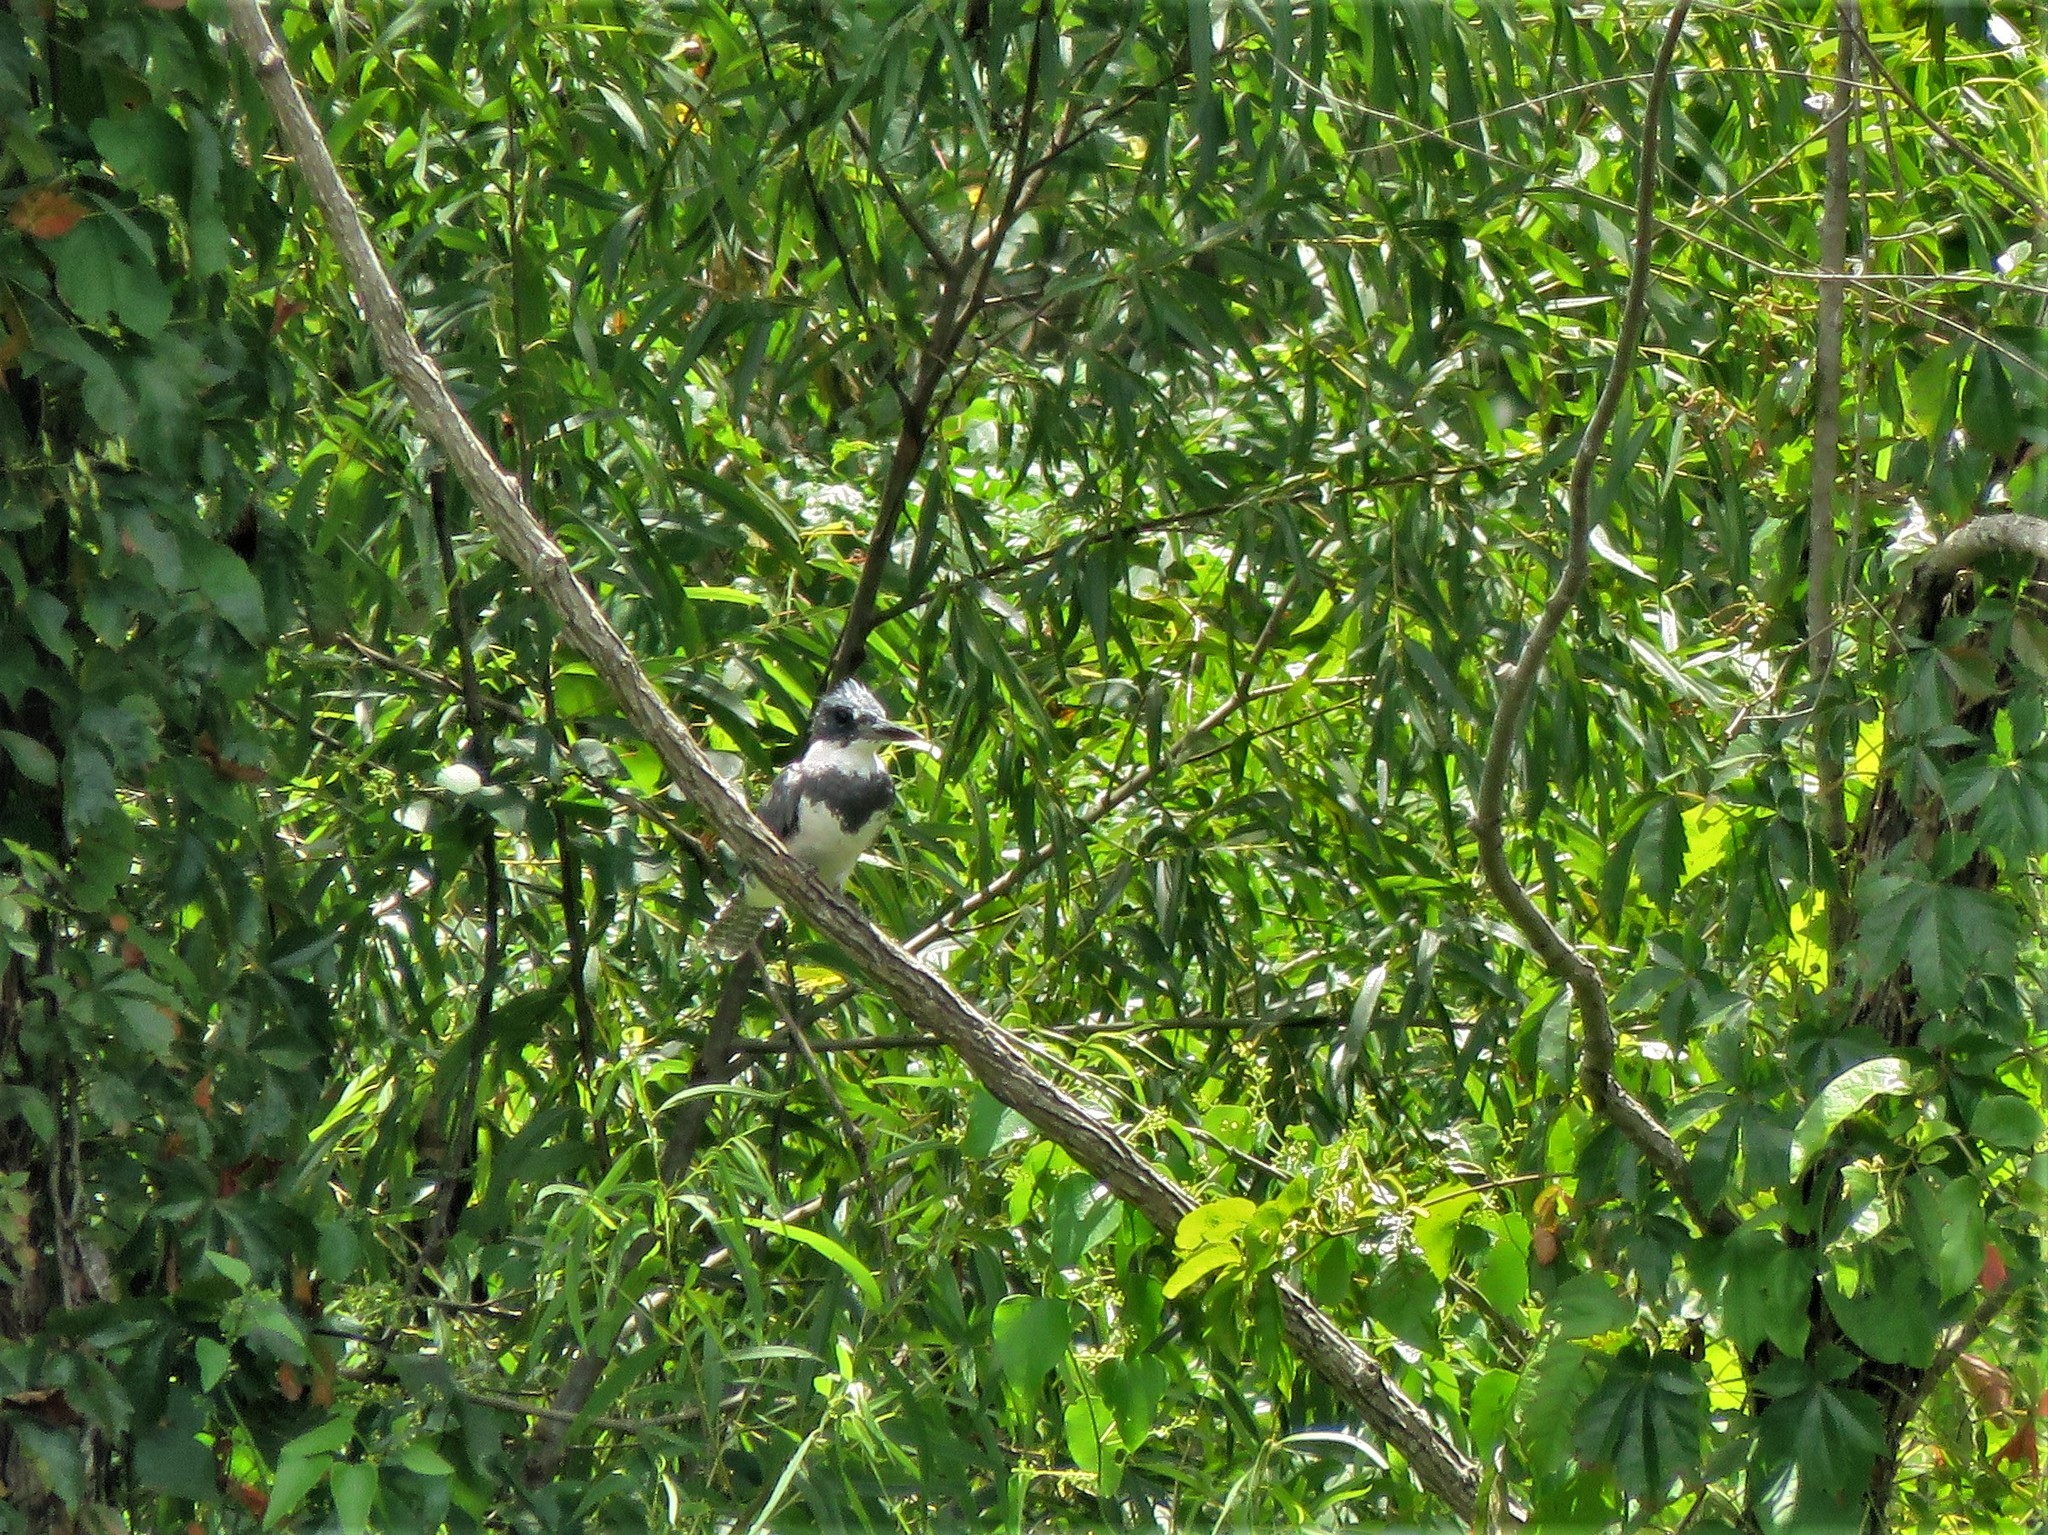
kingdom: Animalia
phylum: Chordata
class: Aves
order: Coraciiformes
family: Alcedinidae
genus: Megaceryle
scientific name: Megaceryle alcyon
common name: Belted kingfisher
